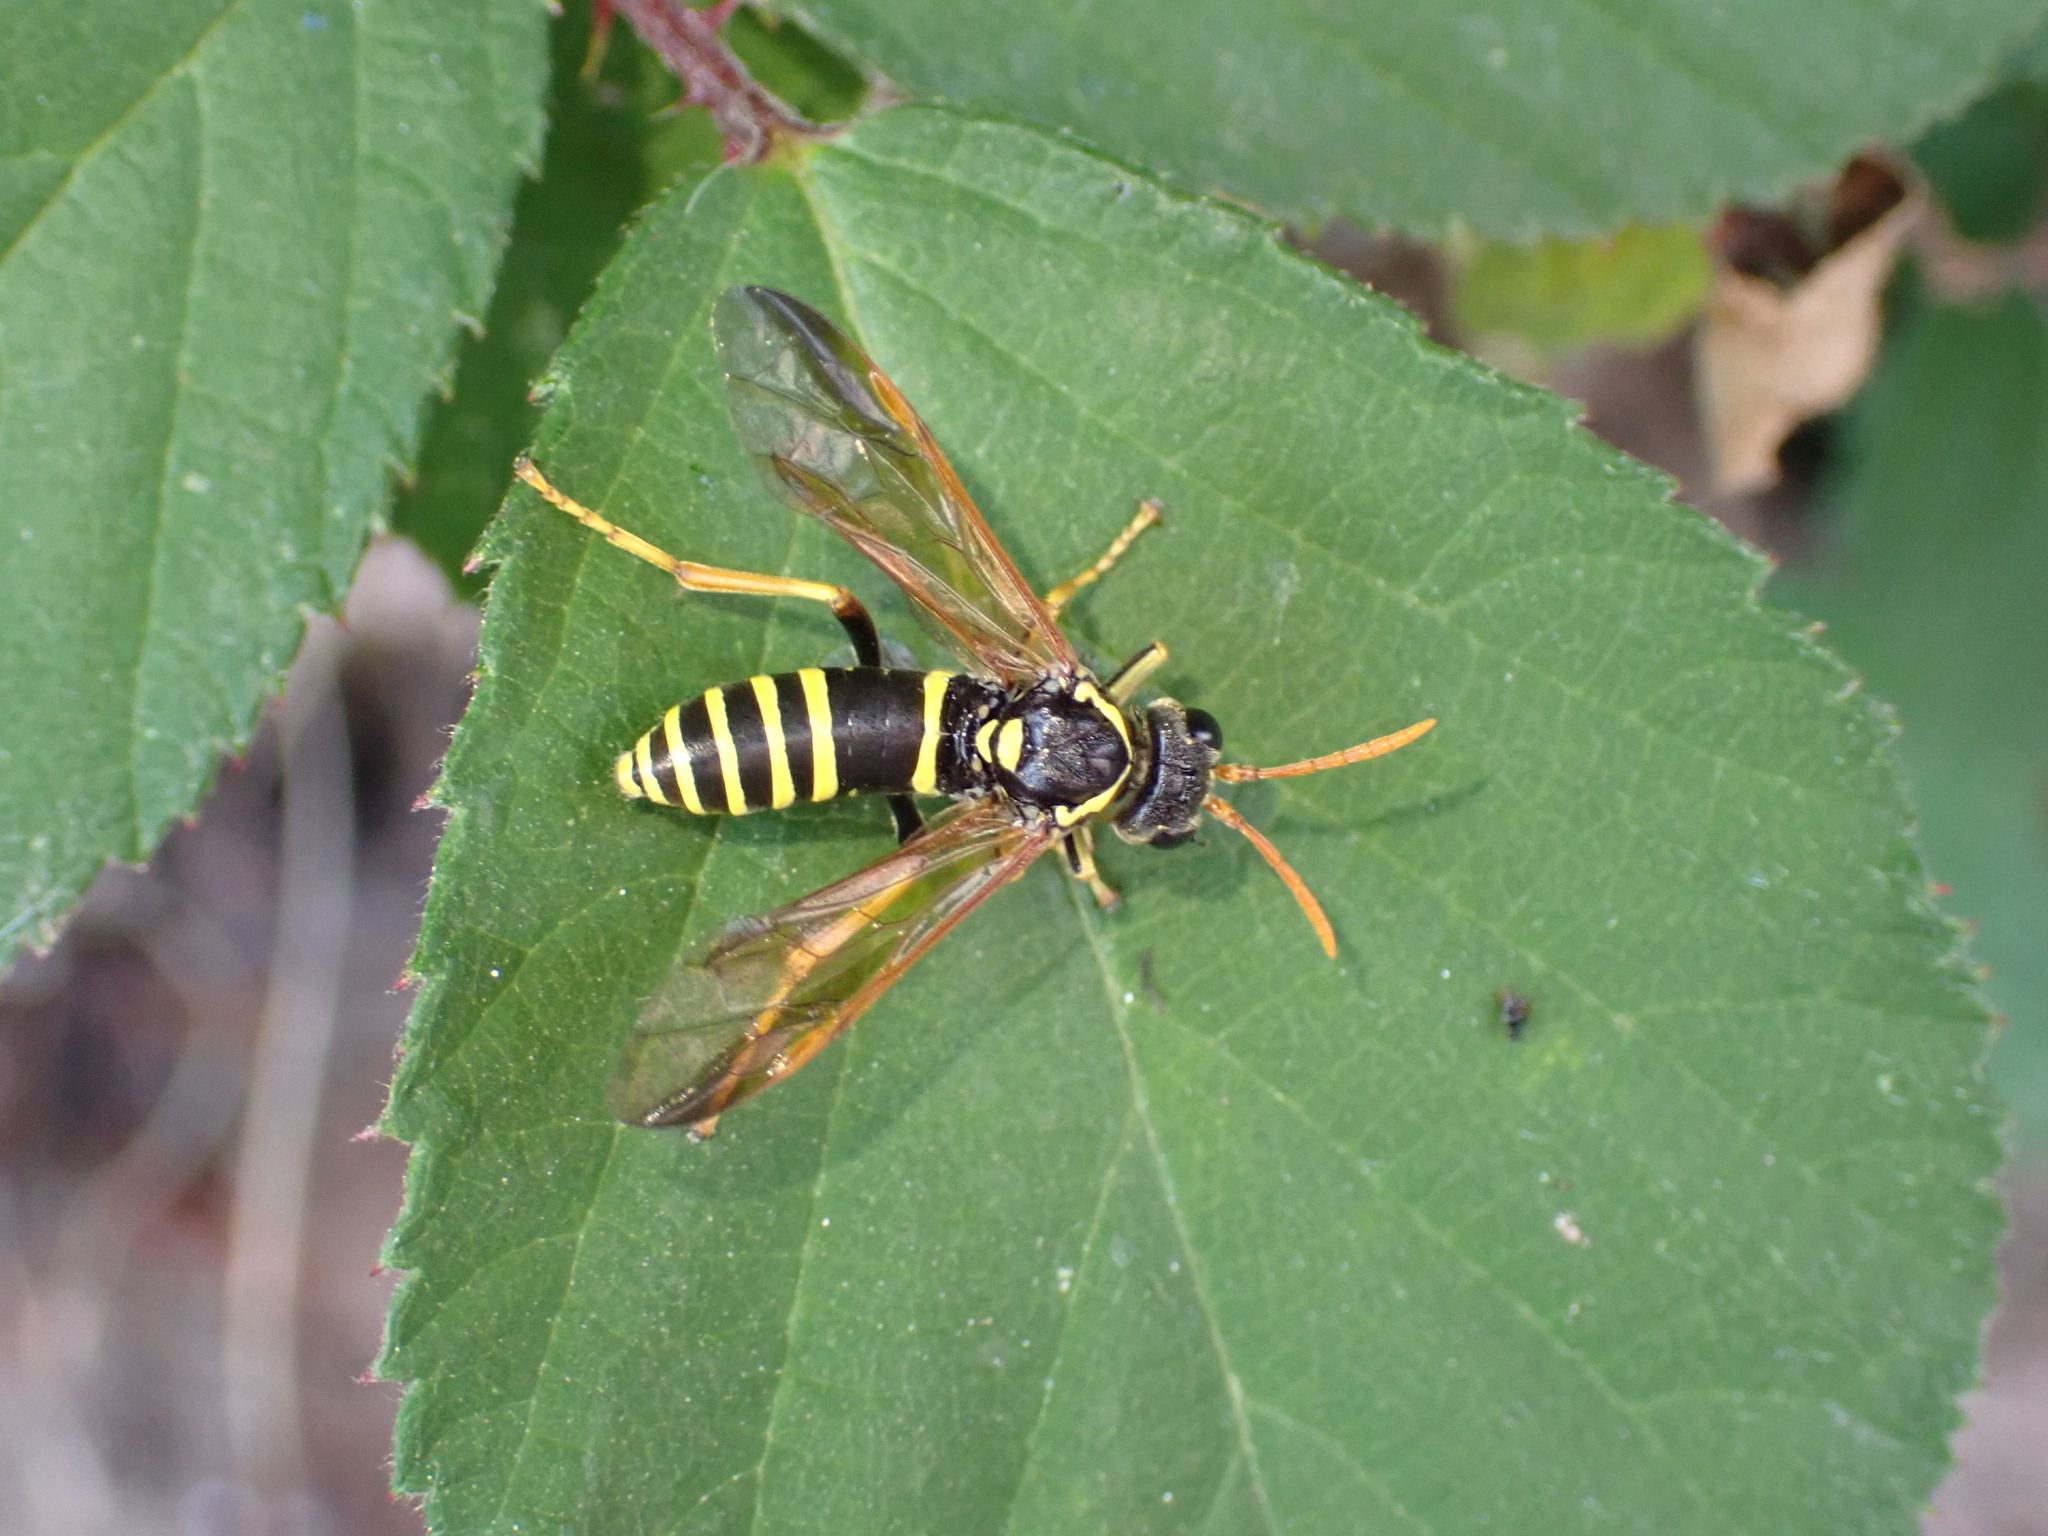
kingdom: Animalia
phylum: Arthropoda
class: Insecta
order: Hymenoptera
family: Tenthredinidae
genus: Tenthredo
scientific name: Tenthredo scrophulariae
